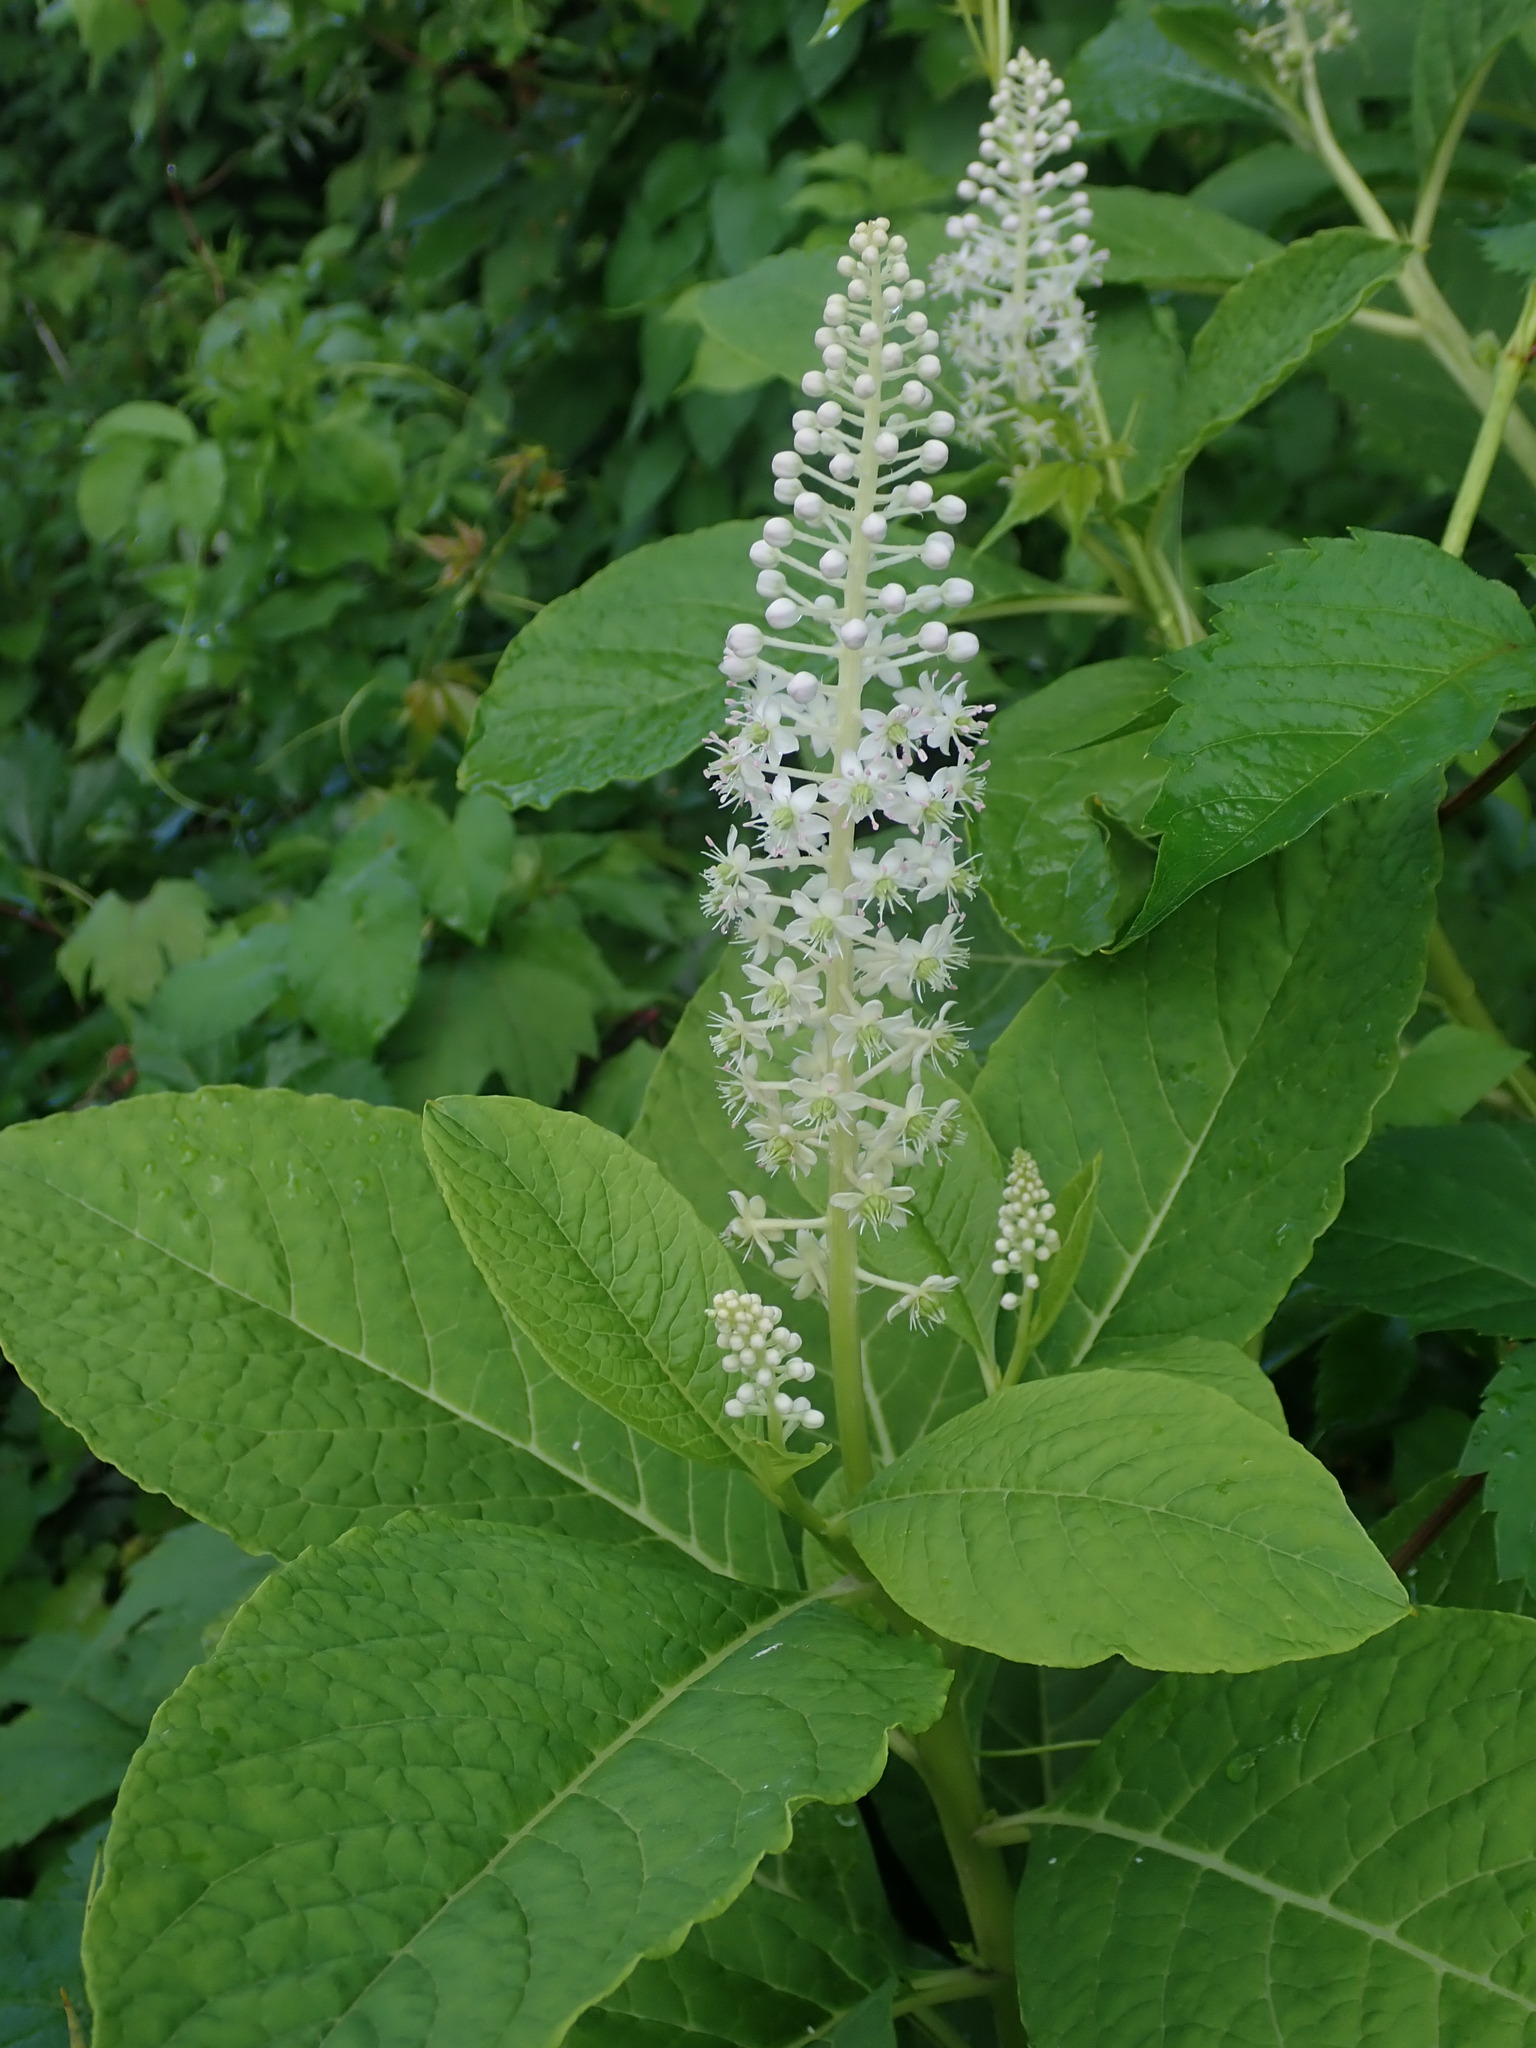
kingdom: Plantae
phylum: Tracheophyta
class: Magnoliopsida
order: Caryophyllales
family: Phytolaccaceae
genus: Phytolacca
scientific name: Phytolacca acinosa
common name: Indian pokeweed
